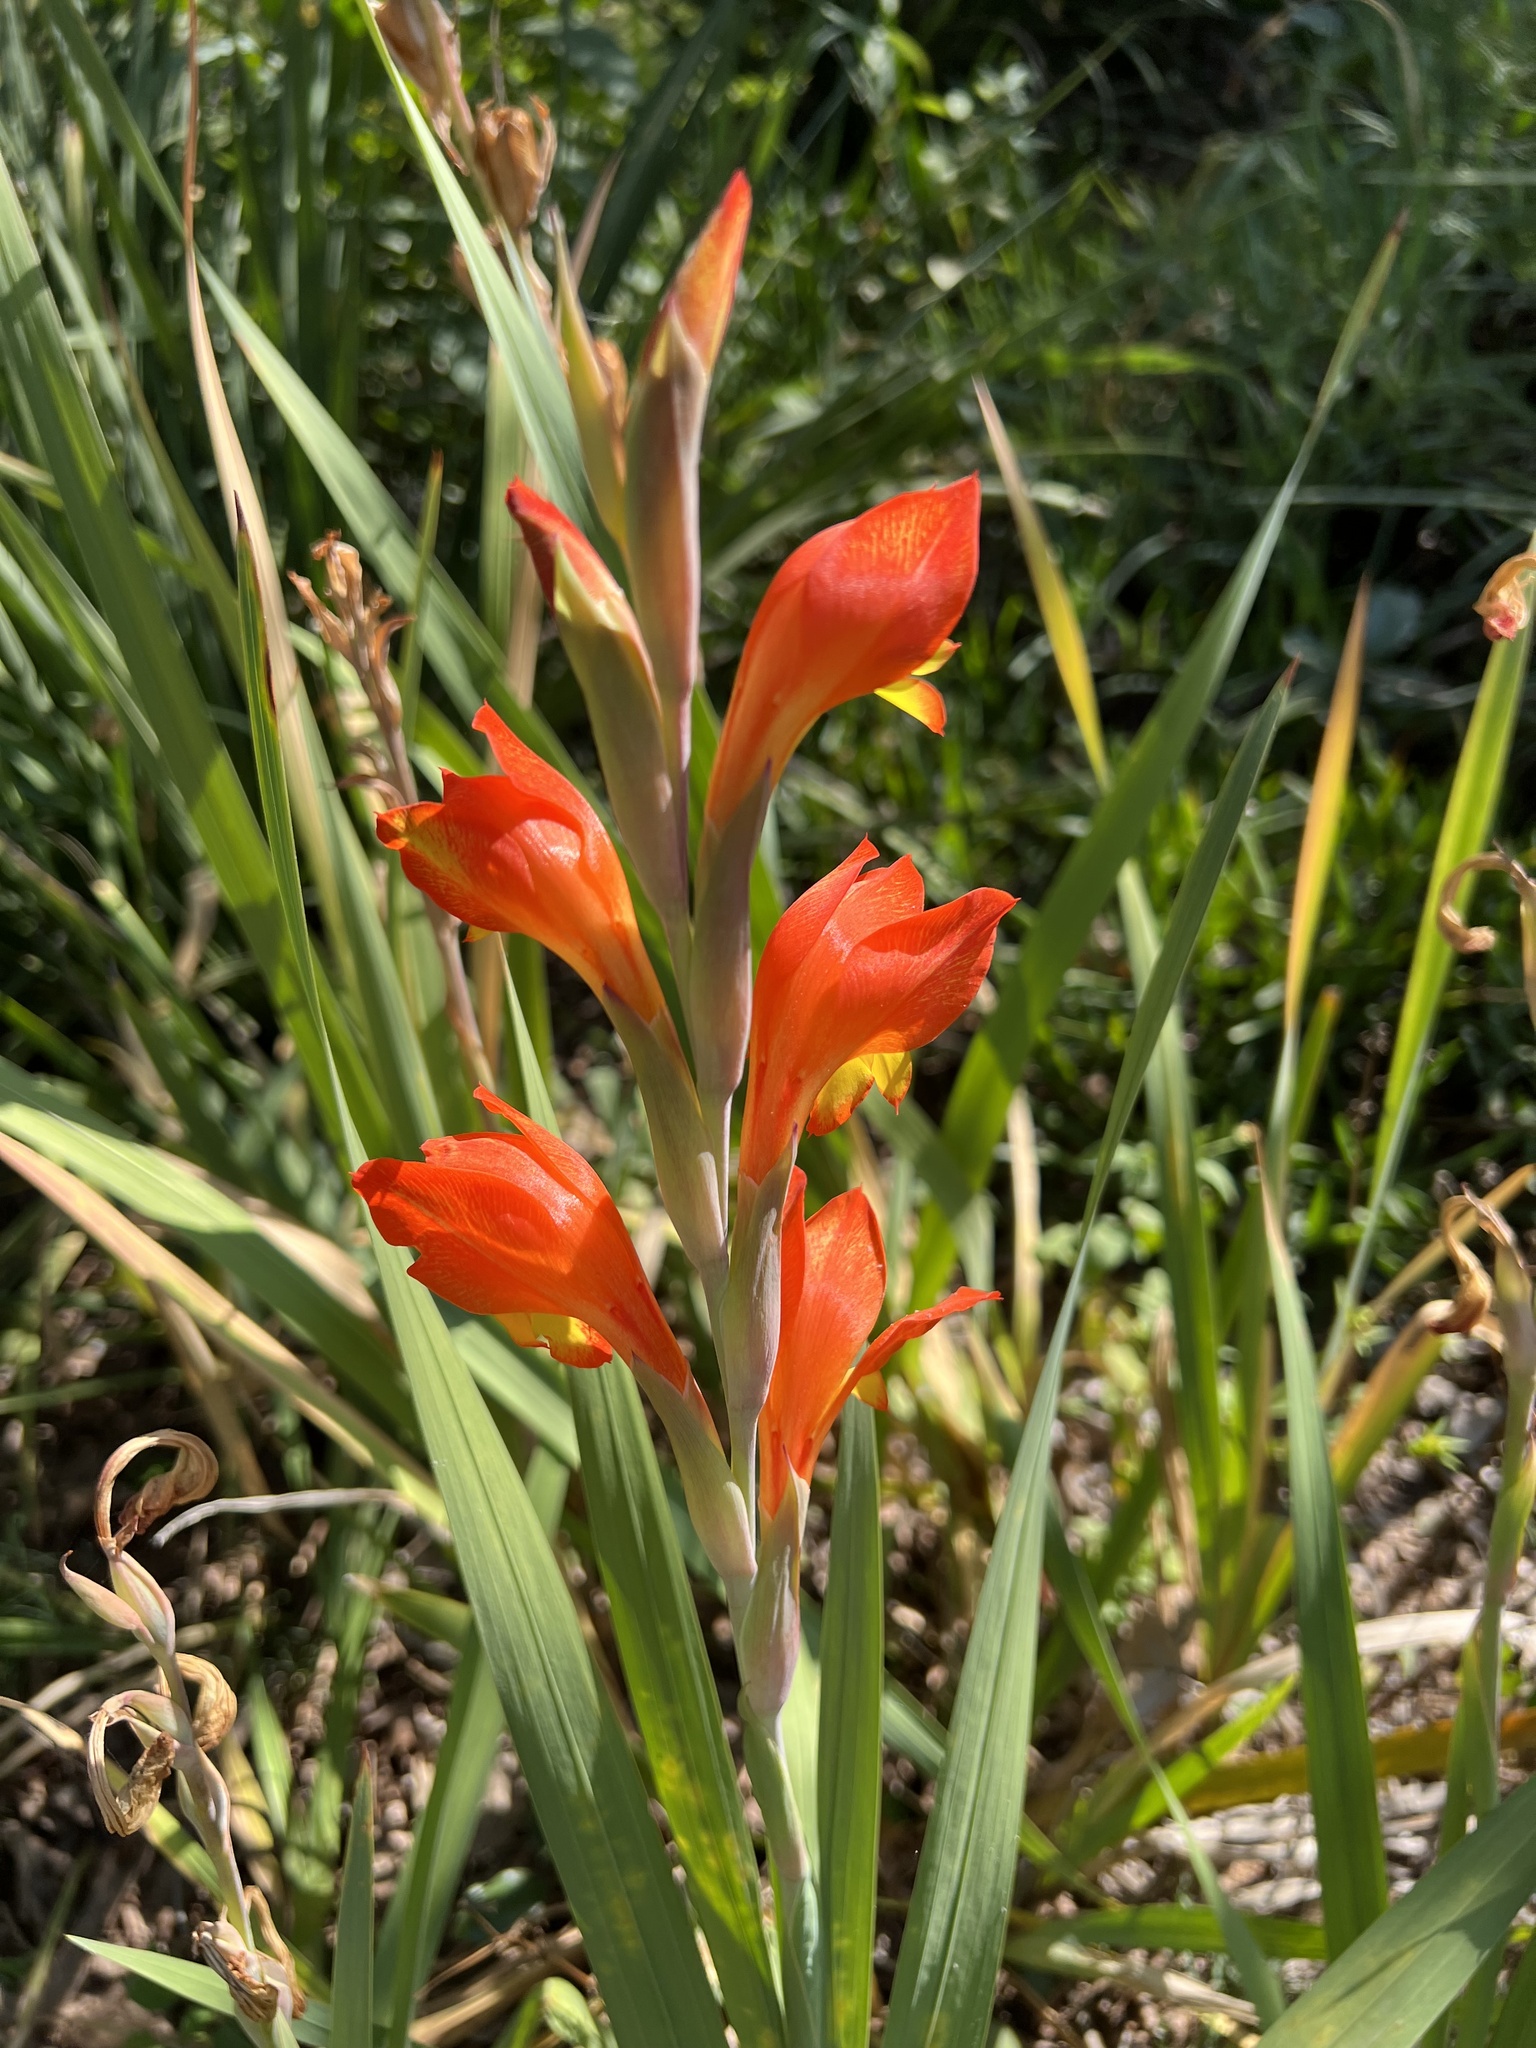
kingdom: Plantae
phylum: Tracheophyta
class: Liliopsida
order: Asparagales
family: Iridaceae
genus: Gladiolus
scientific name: Gladiolus dalenii
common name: Cornflag
